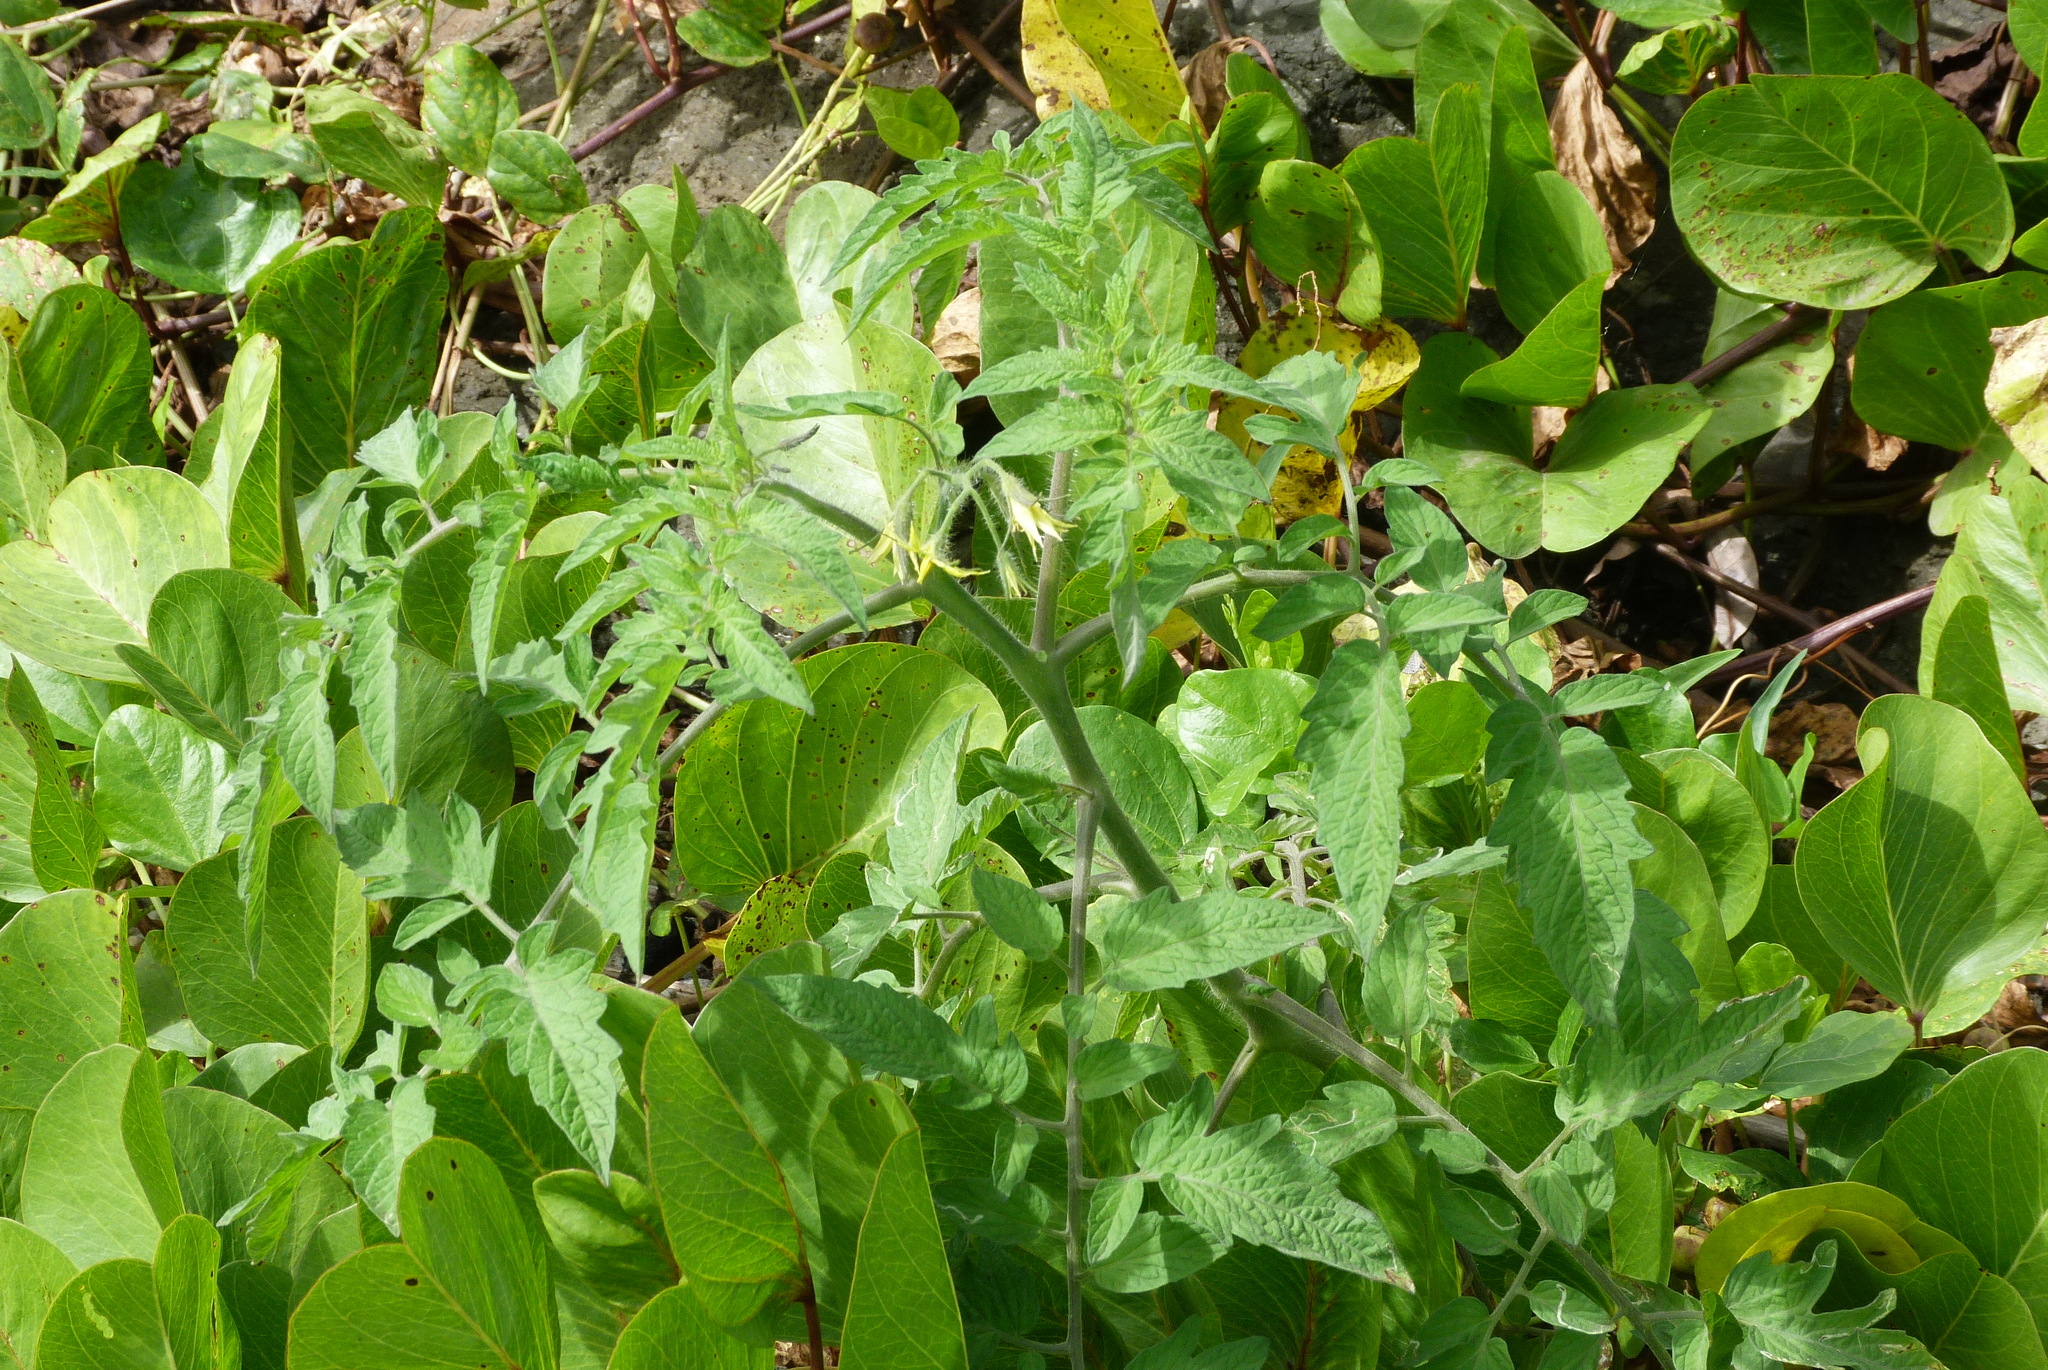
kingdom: Plantae
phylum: Tracheophyta
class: Magnoliopsida
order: Solanales
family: Solanaceae
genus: Solanum
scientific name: Solanum lycopersicum
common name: Garden tomato
